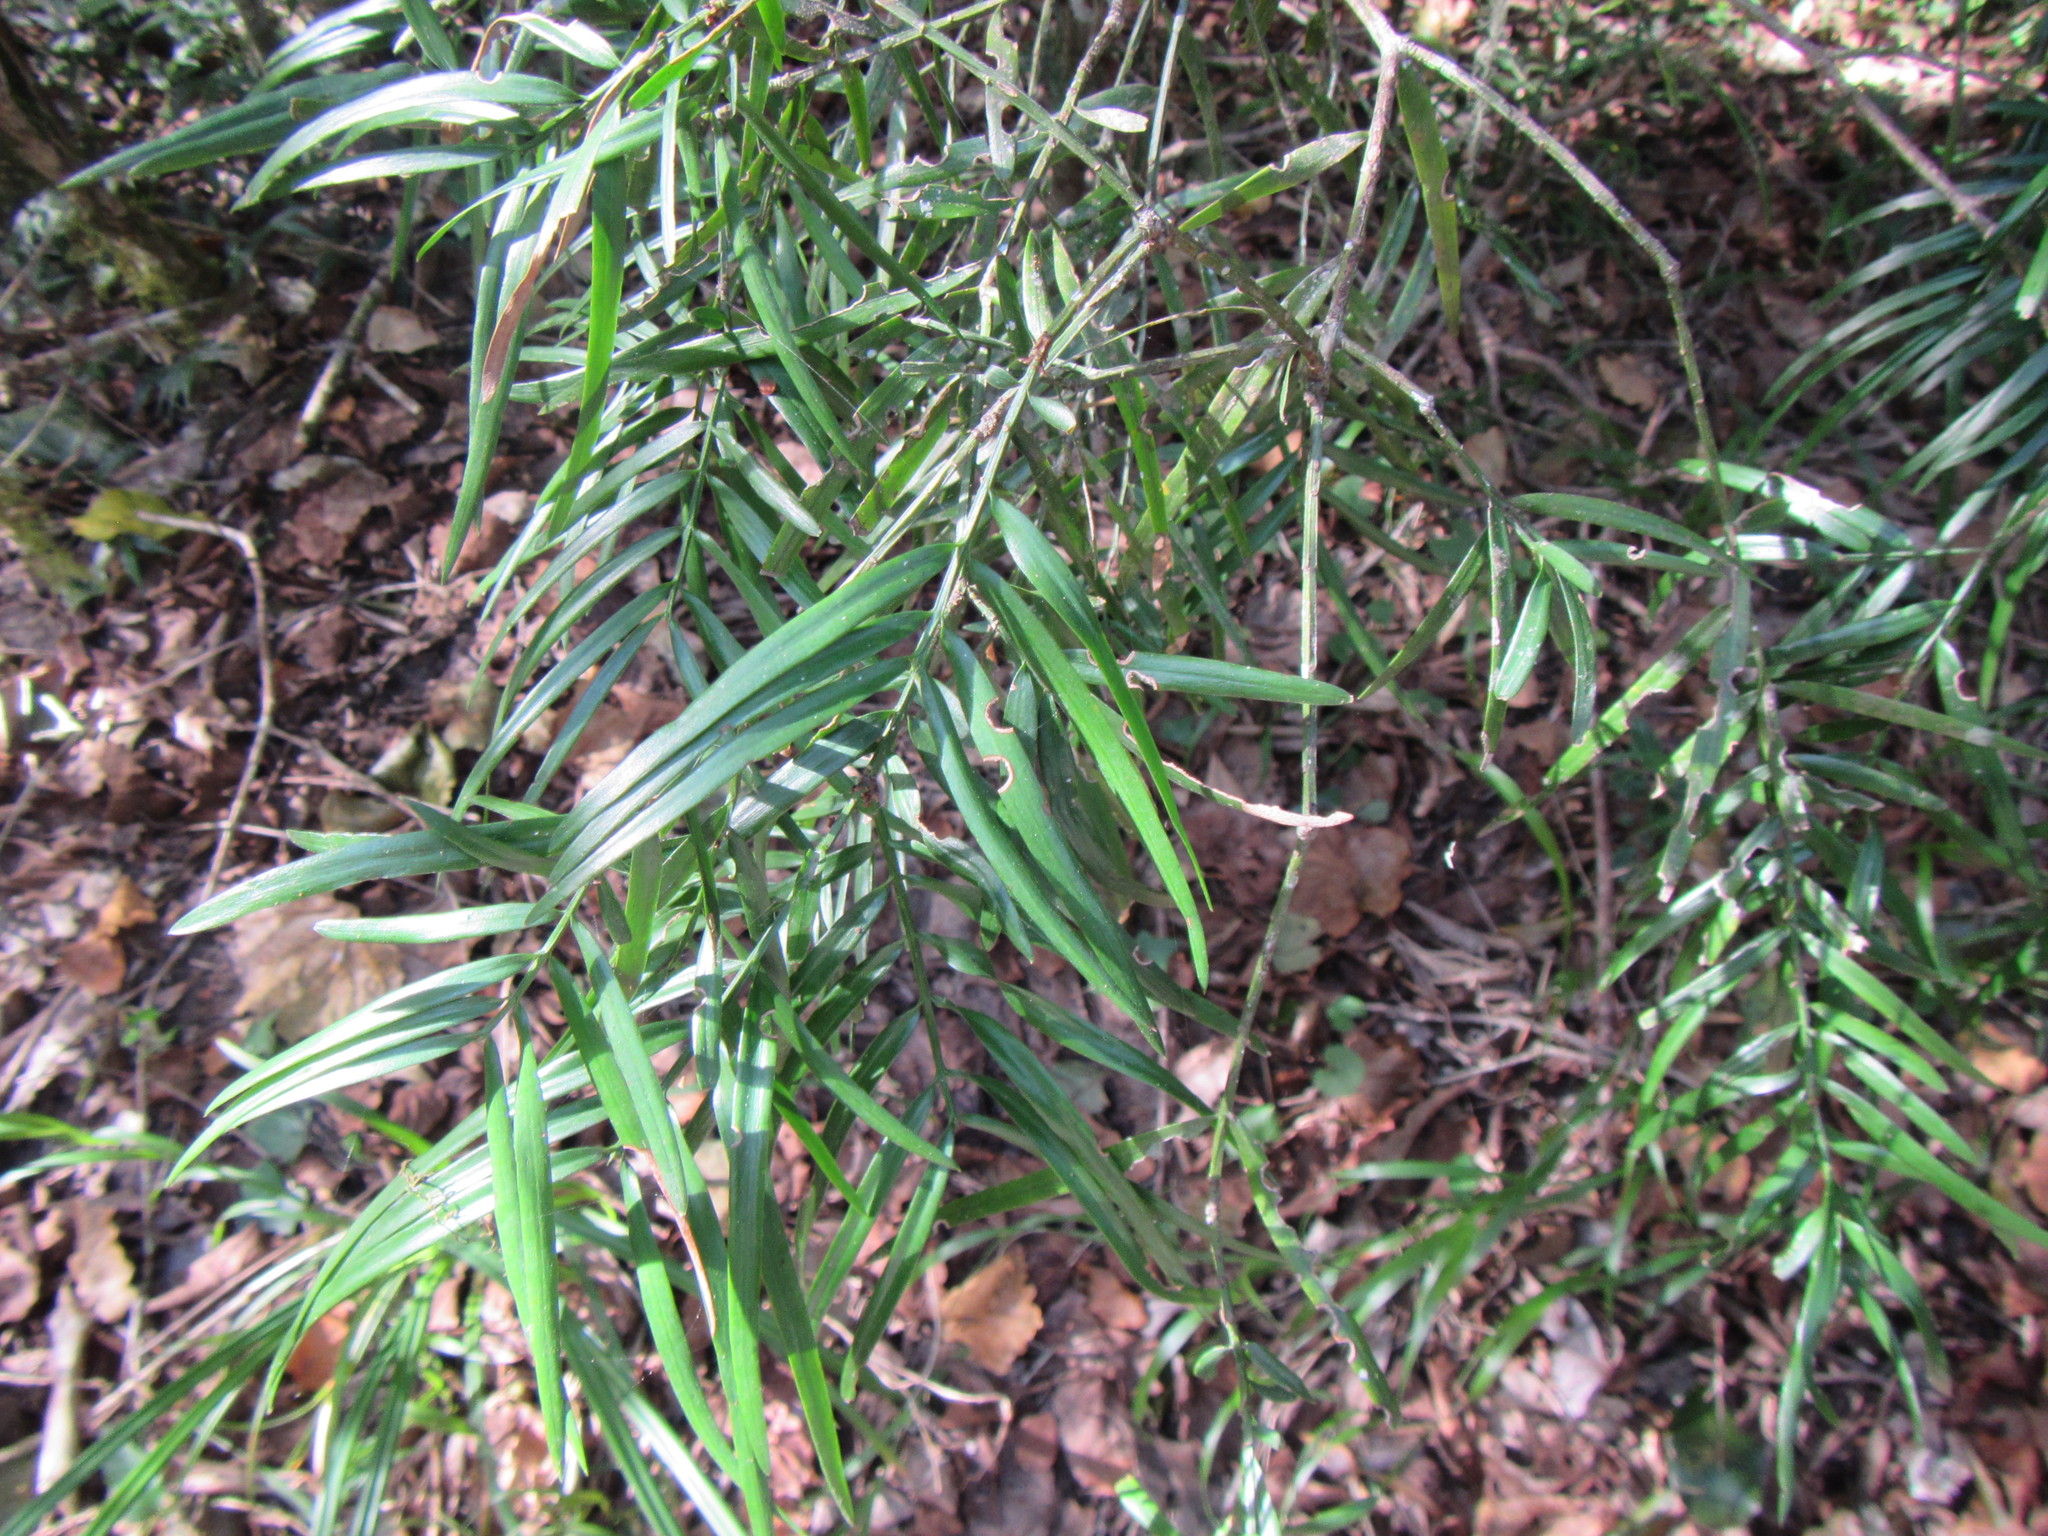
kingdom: Plantae
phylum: Tracheophyta
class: Pinopsida
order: Pinales
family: Podocarpaceae
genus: Afrocarpus
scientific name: Afrocarpus falcatus
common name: Bastard yellowwood
